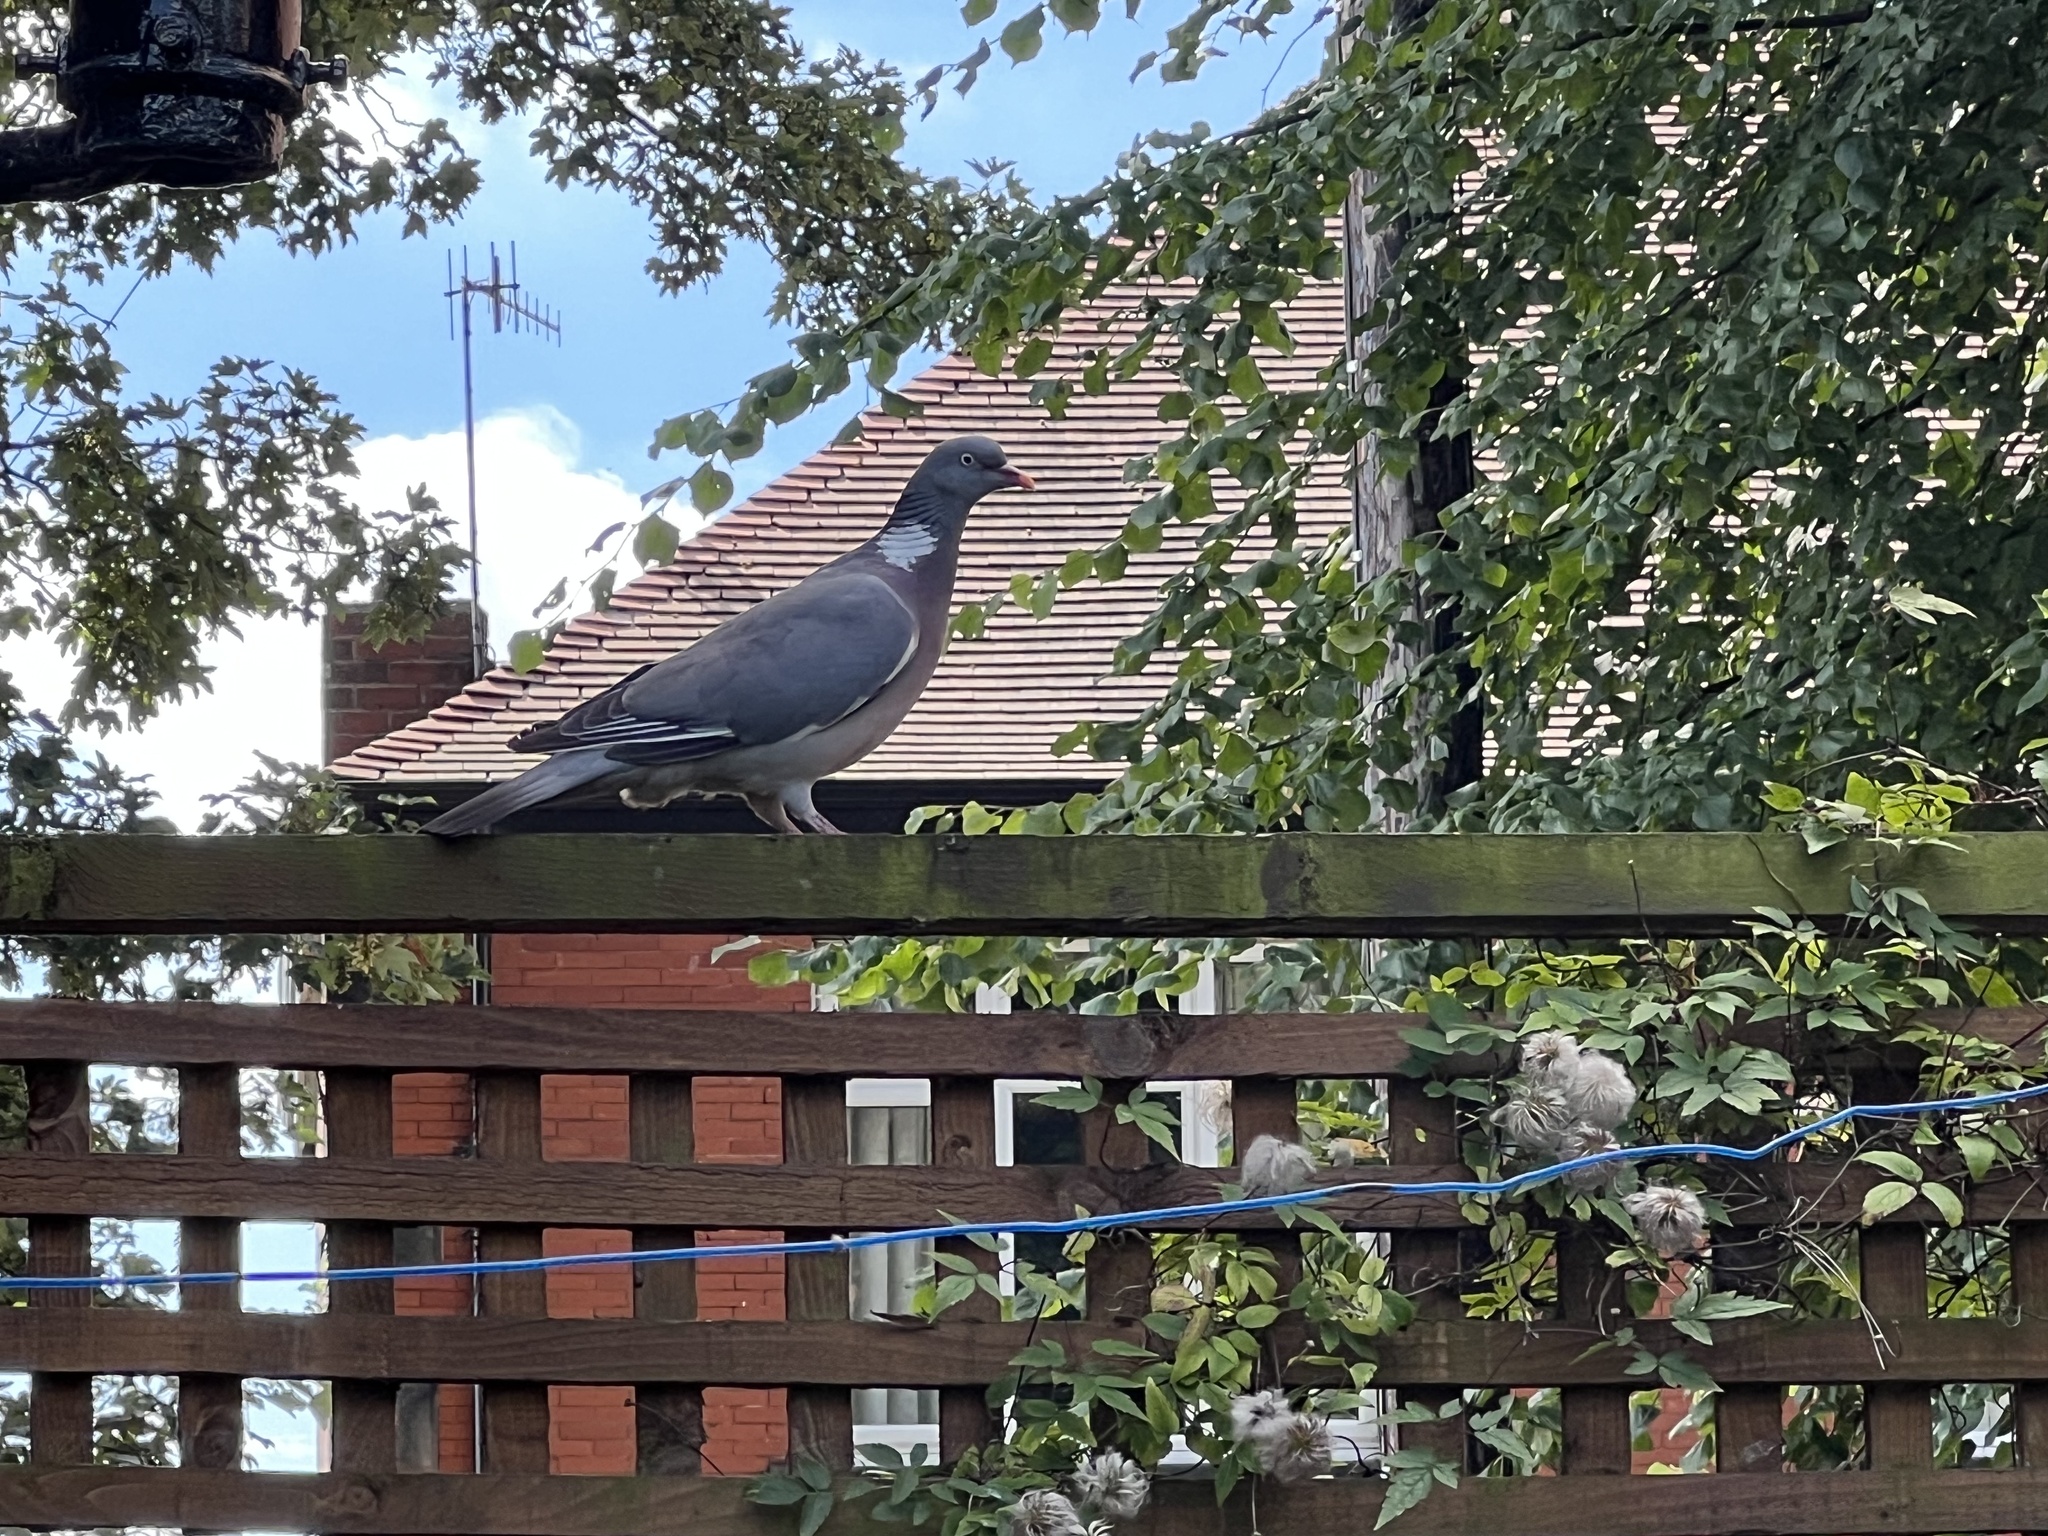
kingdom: Animalia
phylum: Chordata
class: Aves
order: Columbiformes
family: Columbidae
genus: Columba
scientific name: Columba palumbus
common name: Common wood pigeon
